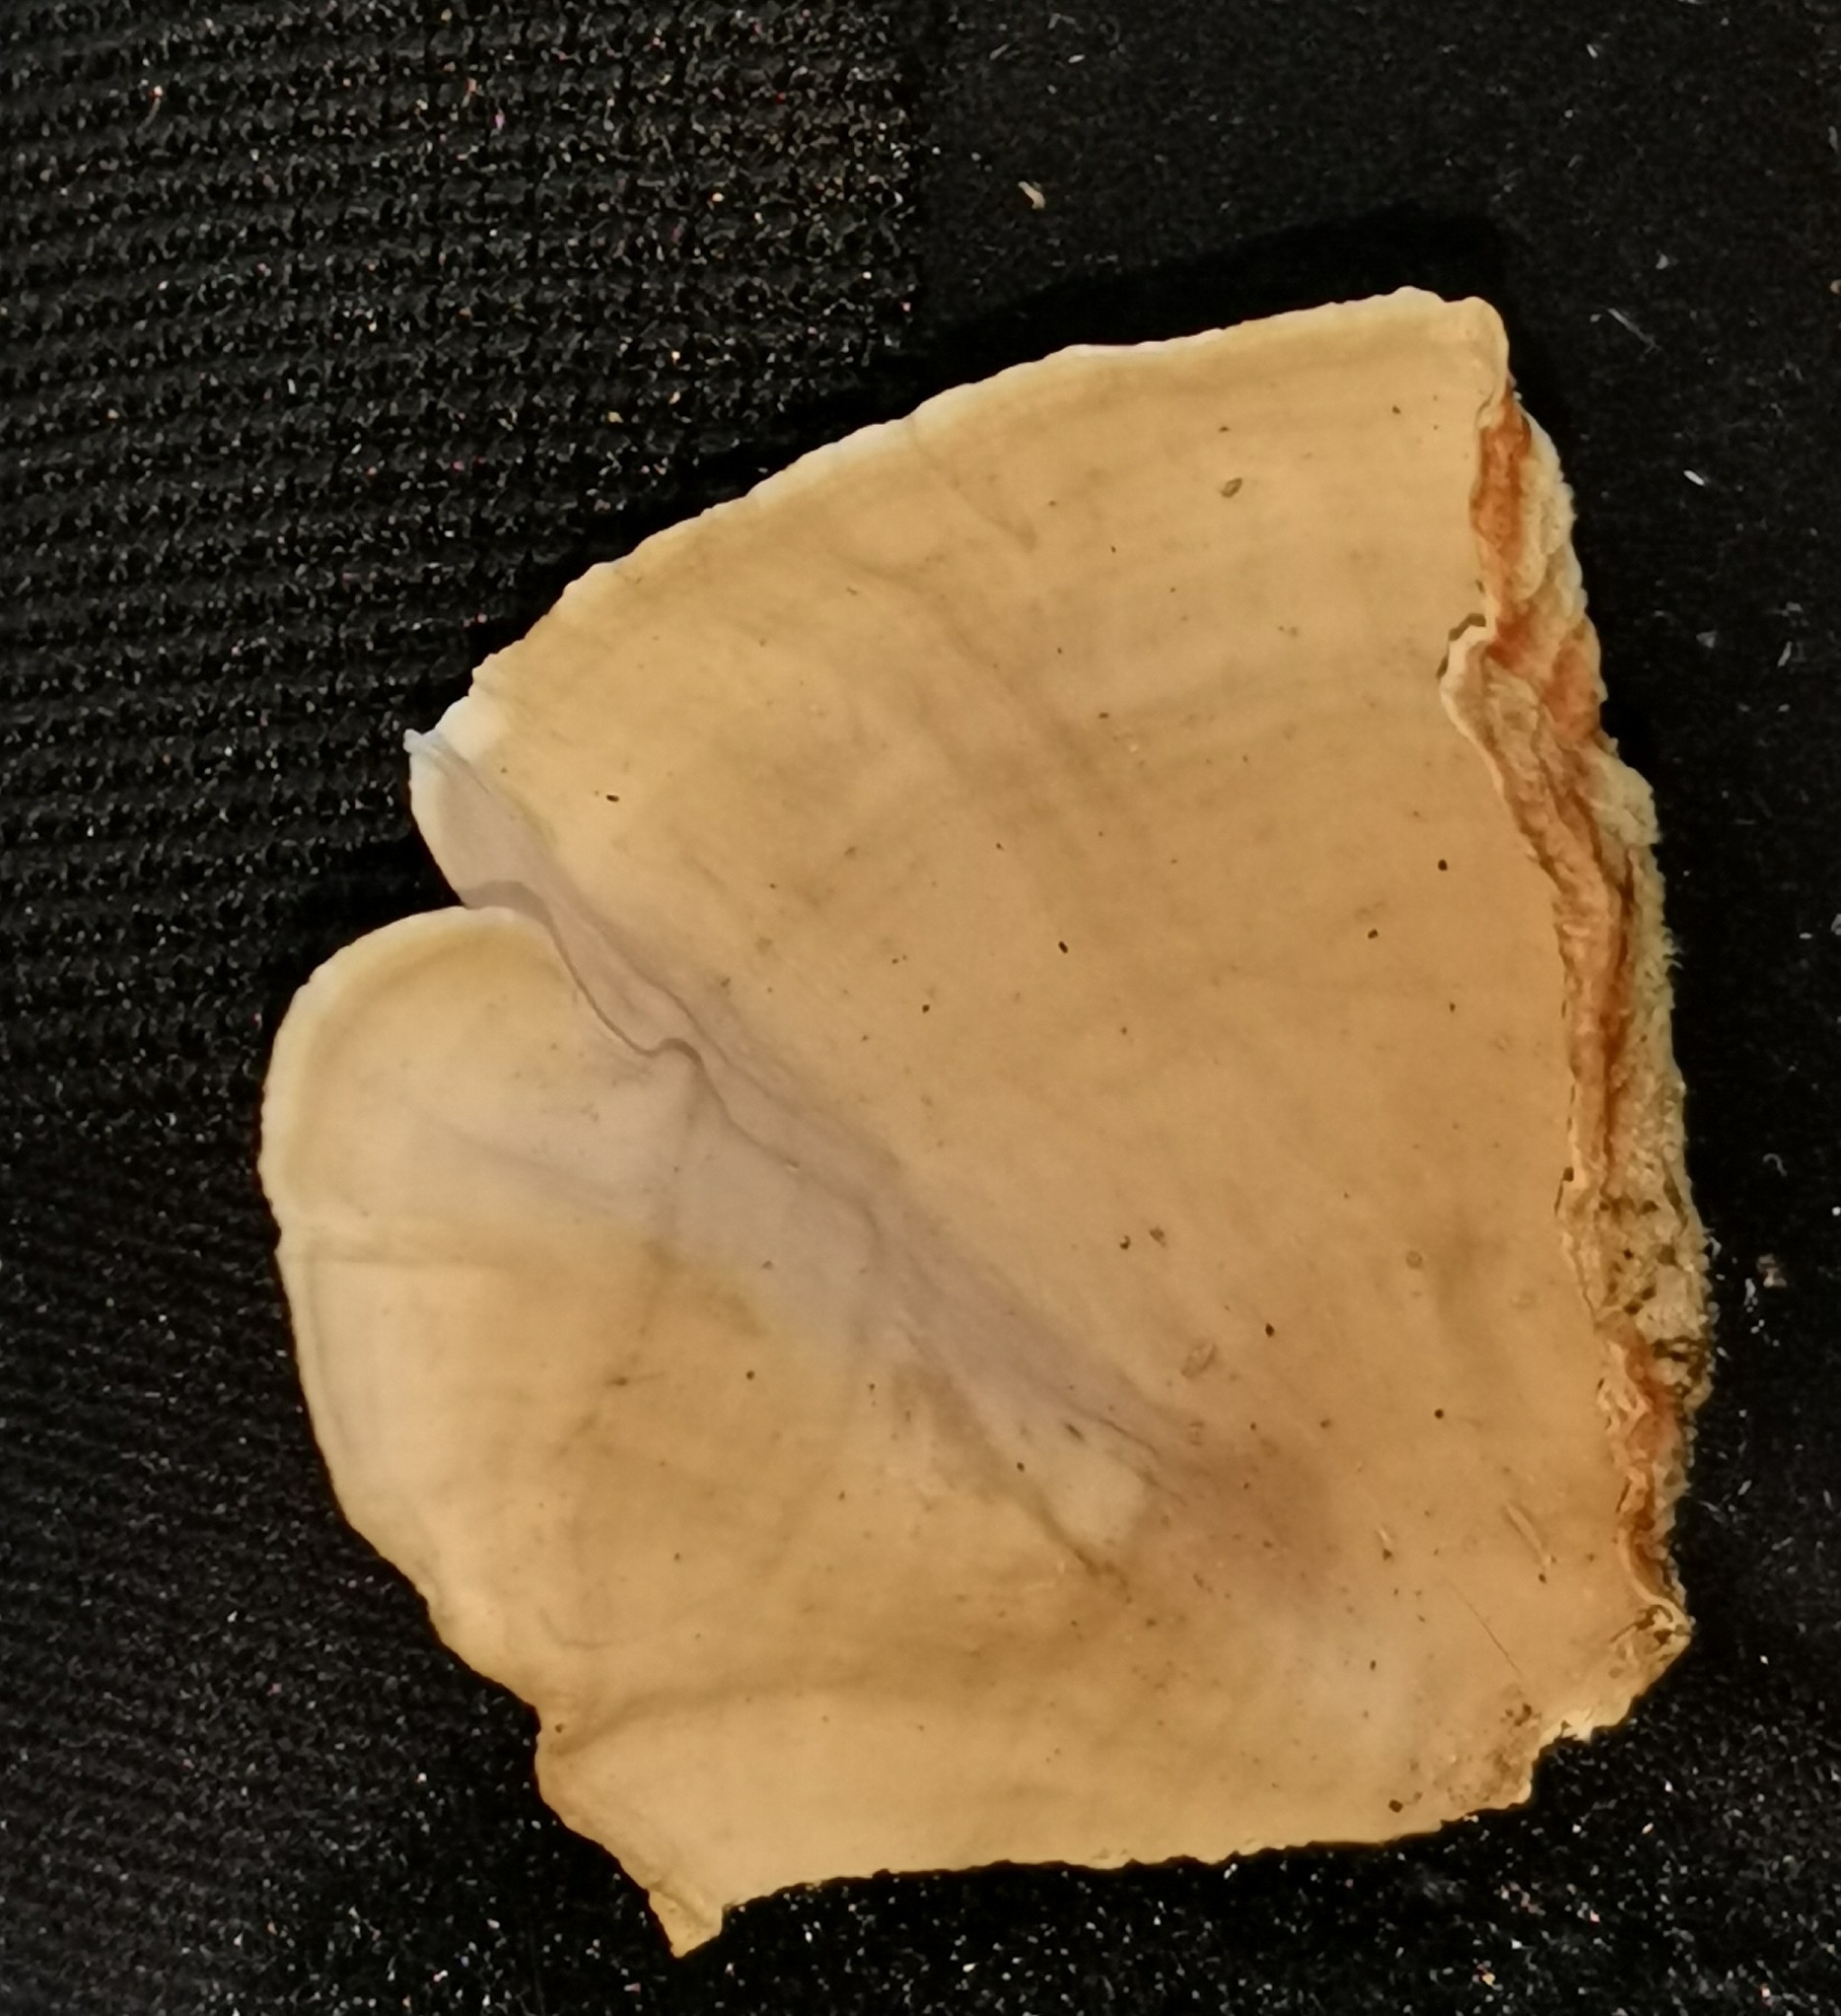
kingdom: Fungi
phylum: Basidiomycota
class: Agaricomycetes
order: Russulales
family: Stereaceae
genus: Stereum
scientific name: Stereum subtomentosum
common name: Yellowing curtain crust
